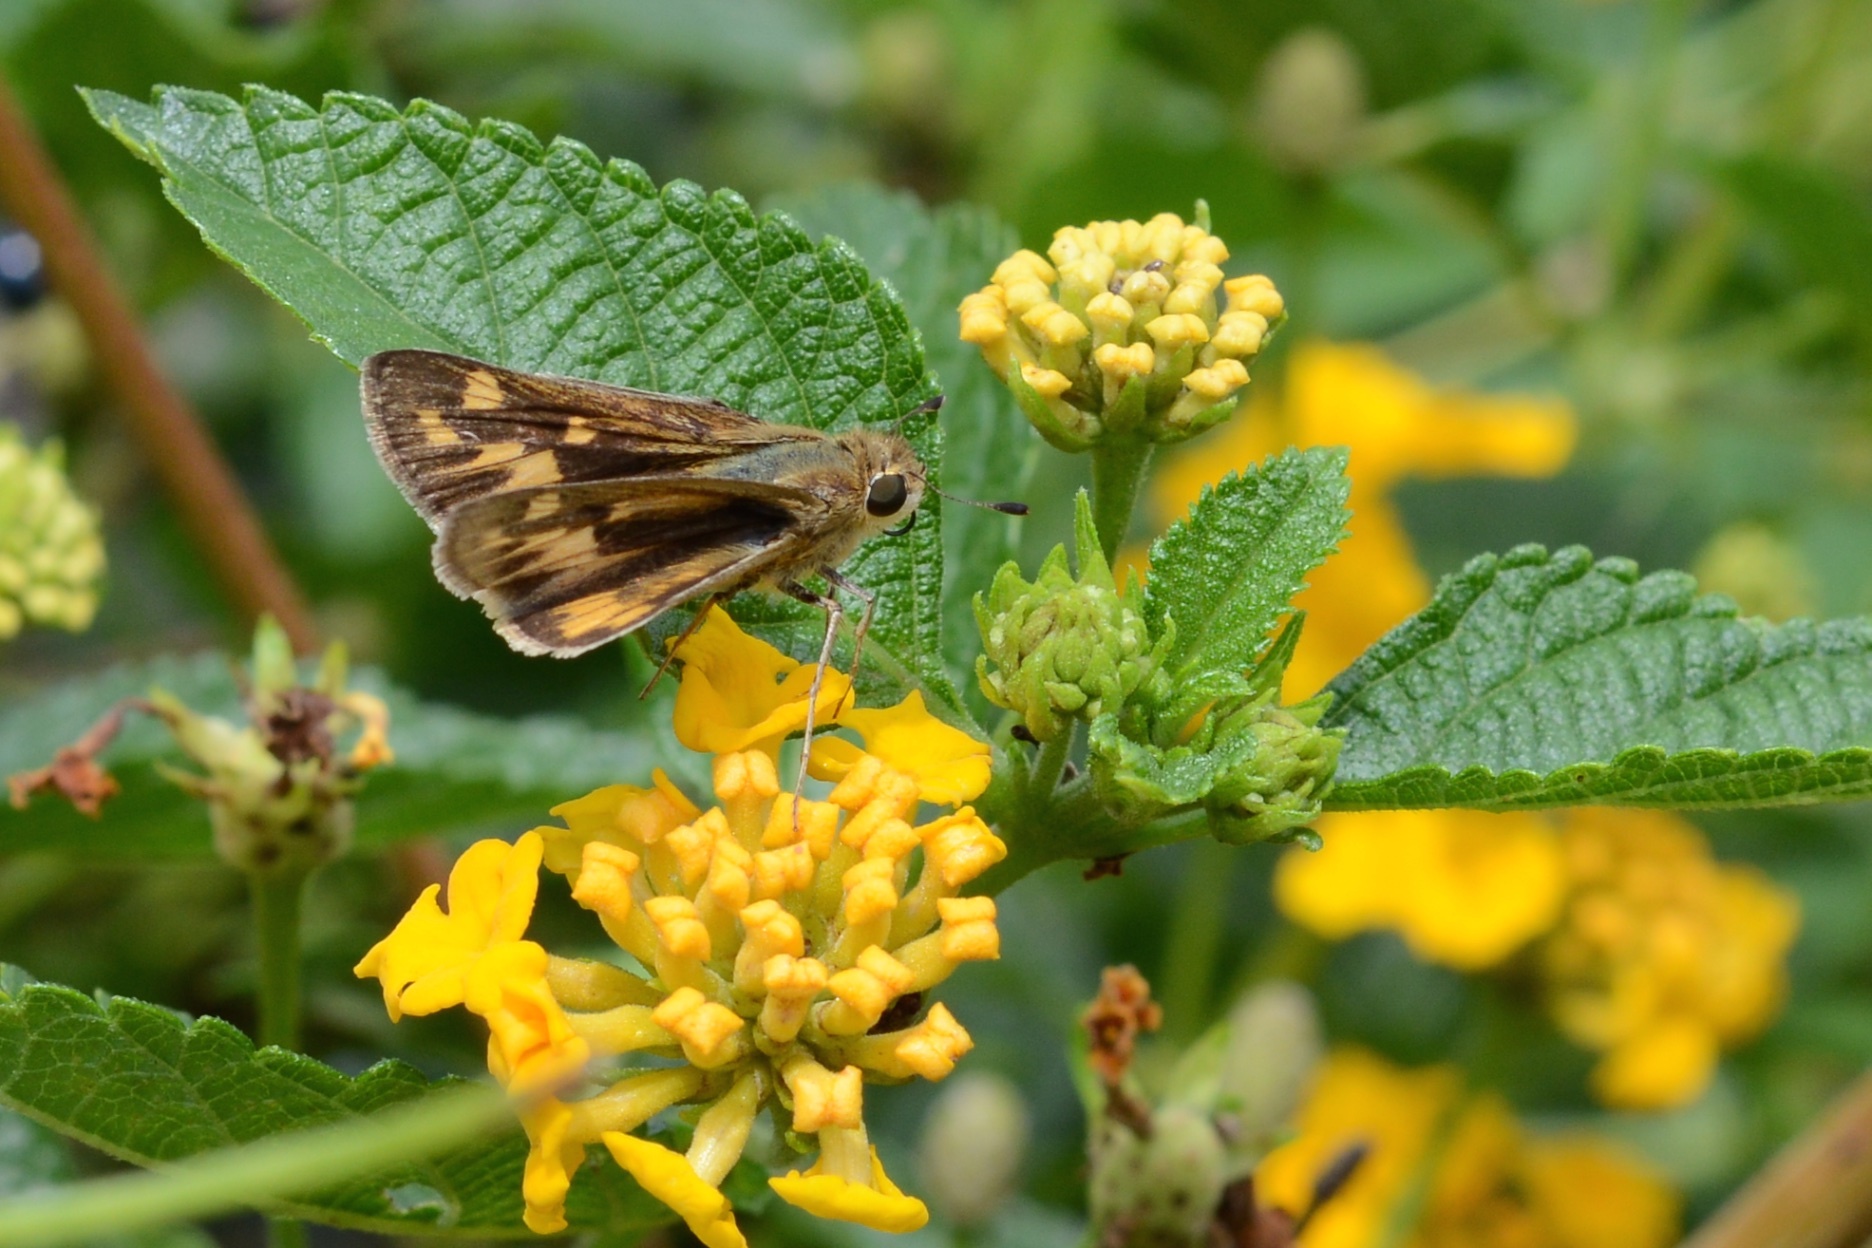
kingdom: Animalia
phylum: Arthropoda
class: Insecta
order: Lepidoptera
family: Hesperiidae
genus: Hylephila
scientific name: Hylephila phyleus
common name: Fiery skipper
